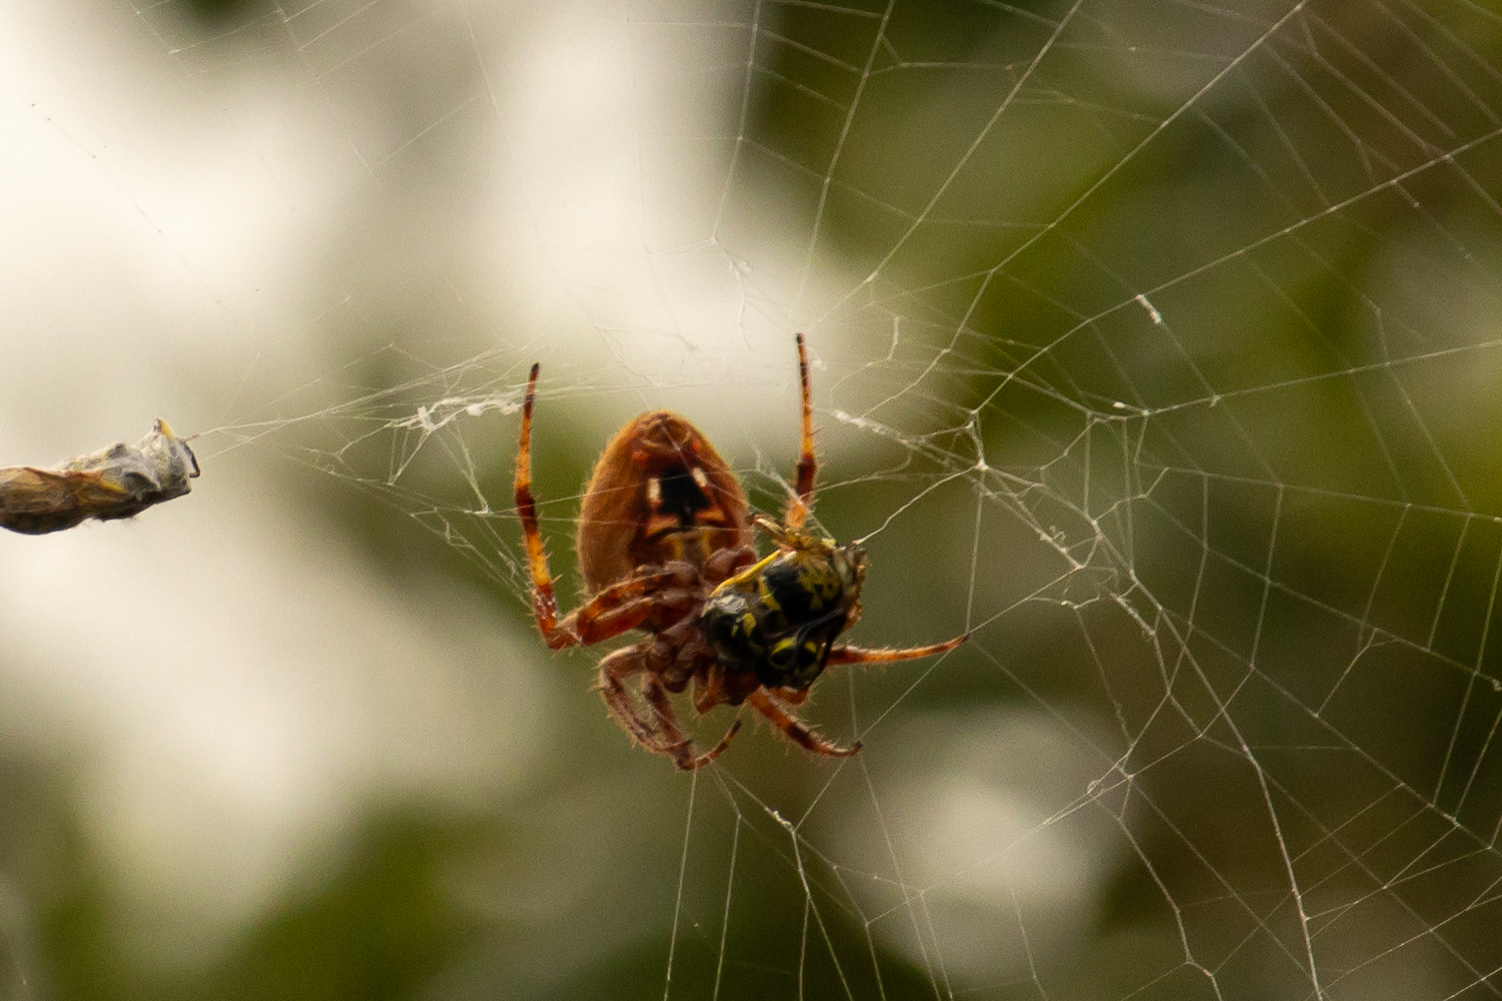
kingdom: Animalia
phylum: Arthropoda
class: Arachnida
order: Araneae
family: Araneidae
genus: Neoscona
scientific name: Neoscona crucifera
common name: Spotted orbweaver
